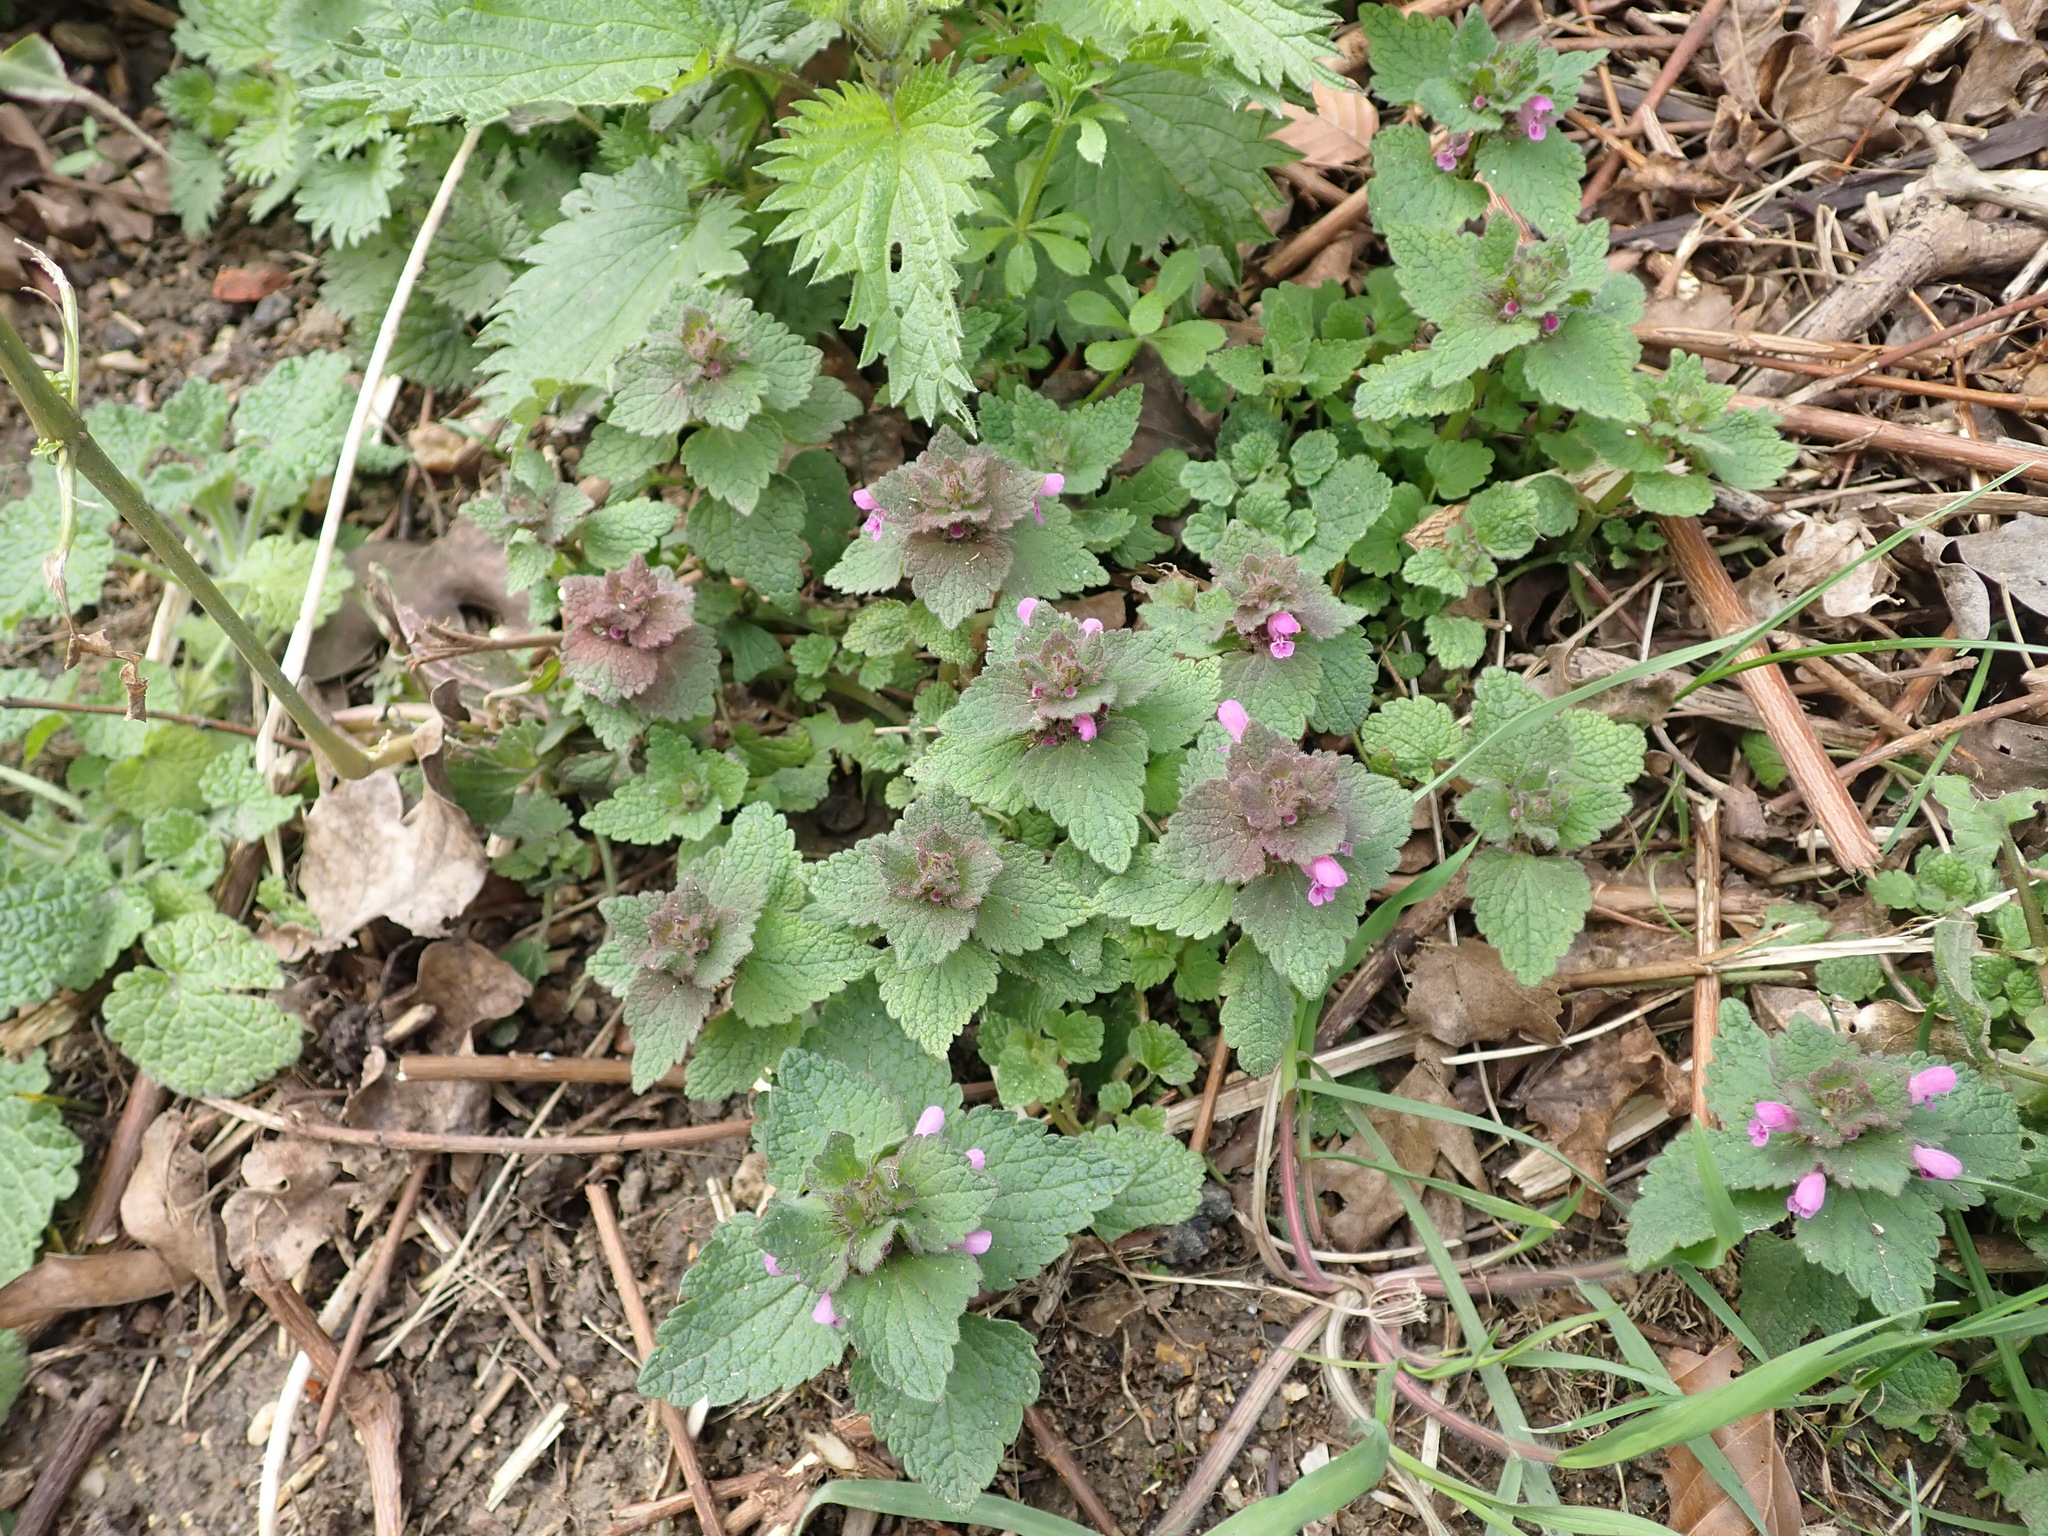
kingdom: Plantae
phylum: Tracheophyta
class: Magnoliopsida
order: Lamiales
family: Lamiaceae
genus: Lamium
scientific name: Lamium purpureum
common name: Red dead-nettle
